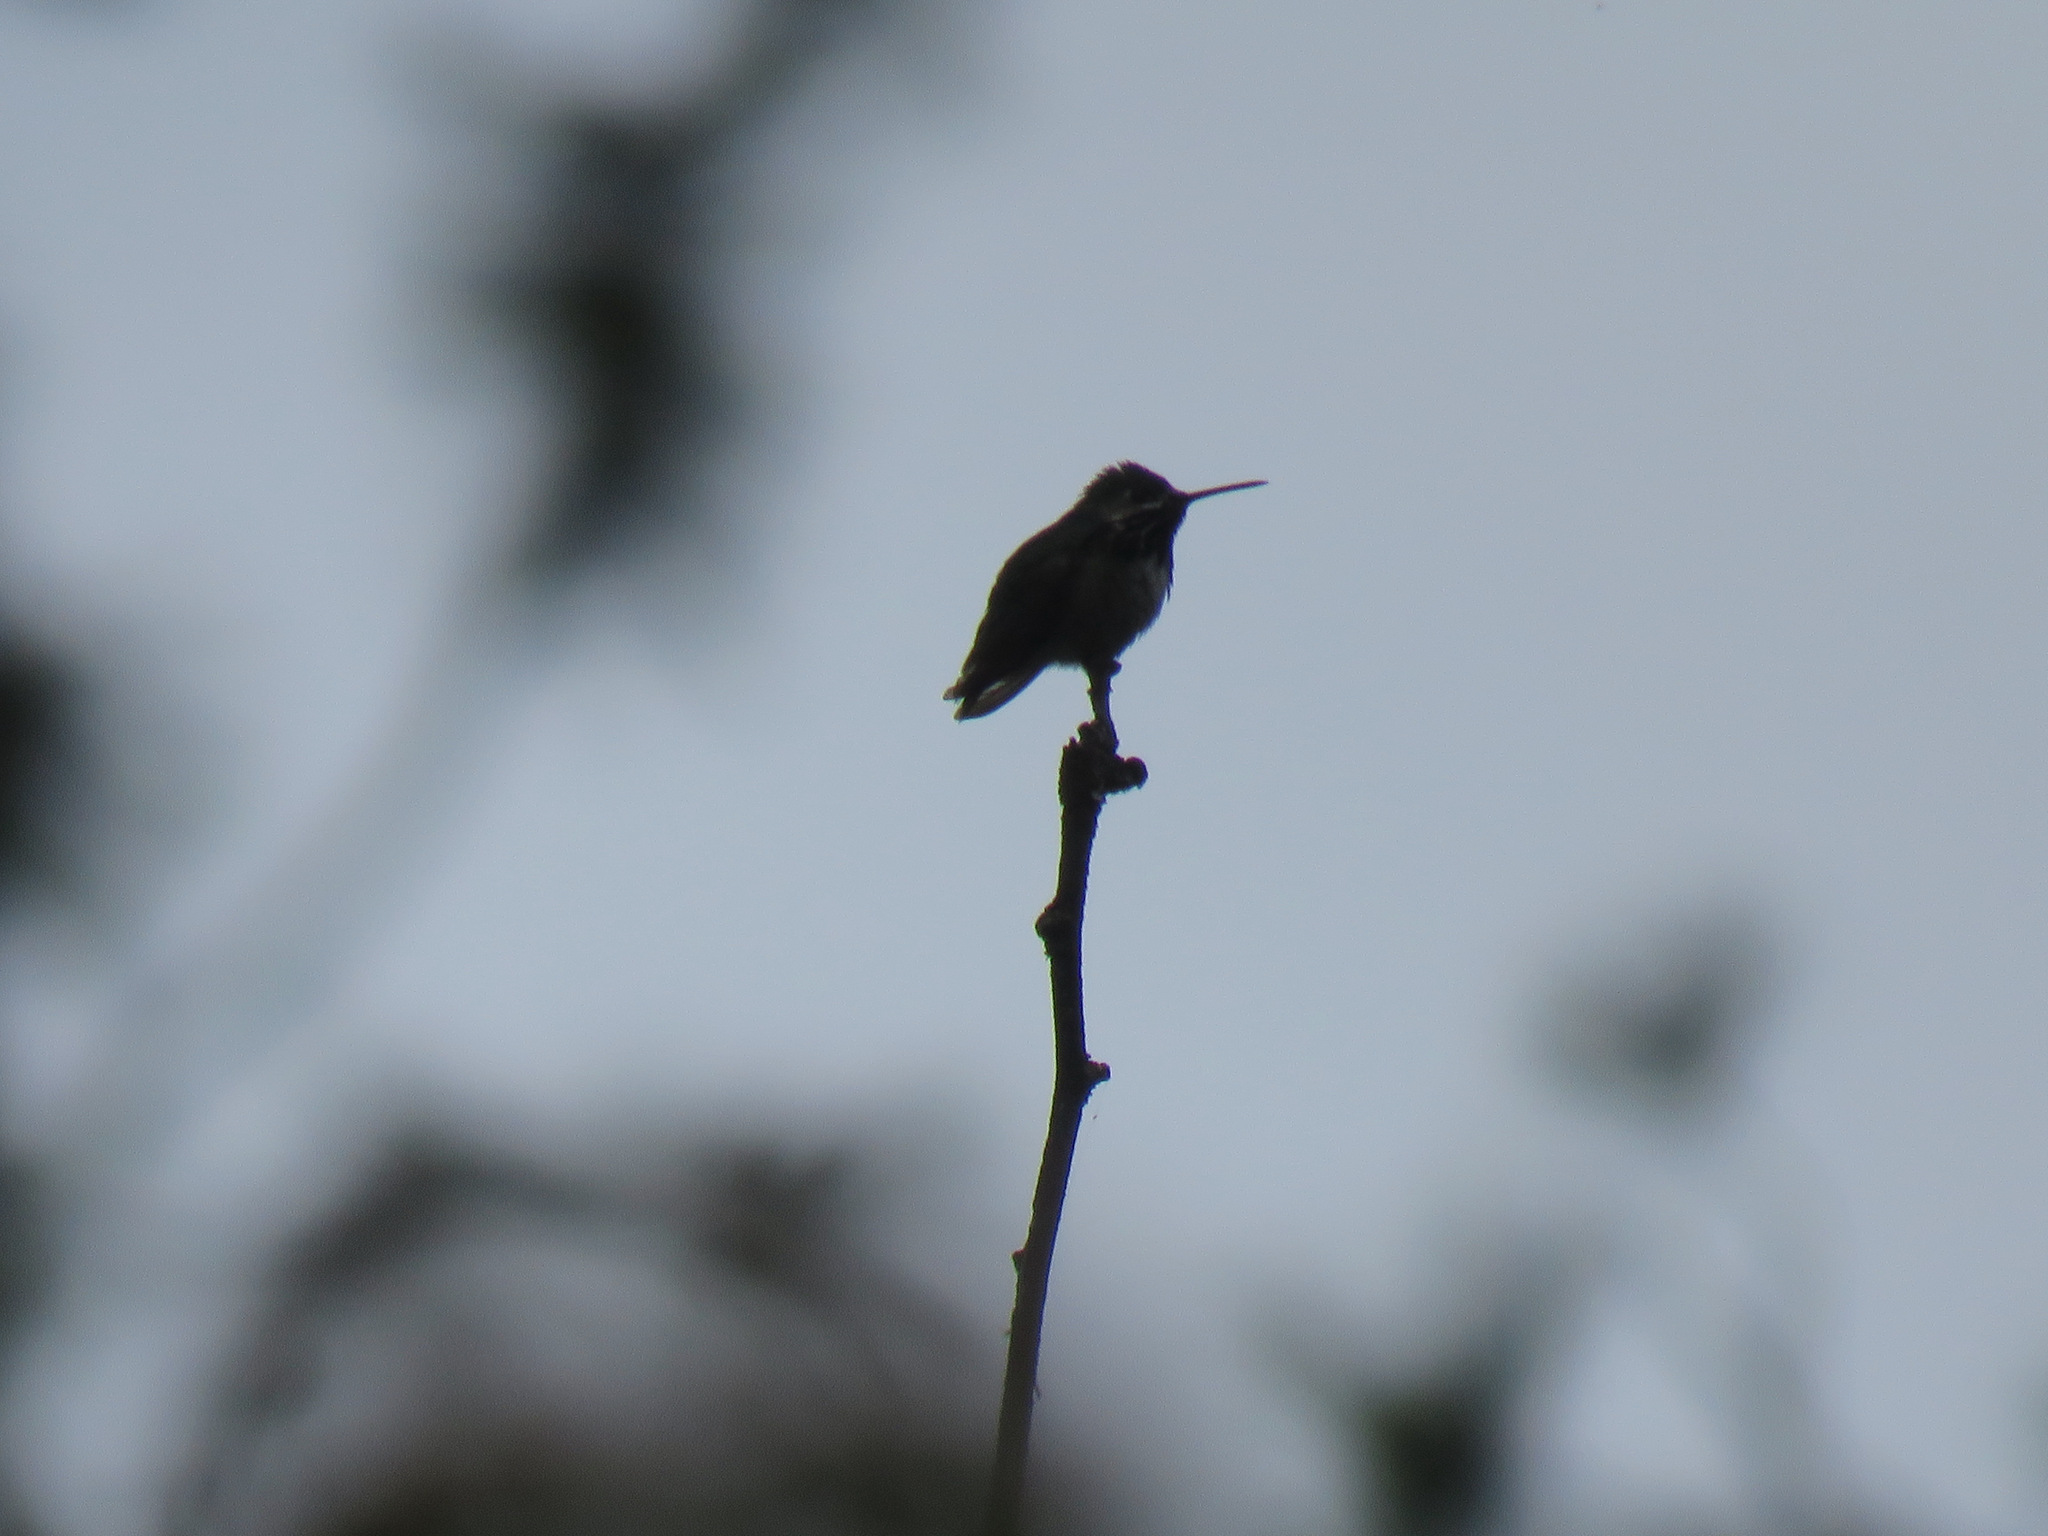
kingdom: Animalia
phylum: Chordata
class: Aves
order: Apodiformes
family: Trochilidae
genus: Selasphorus
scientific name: Selasphorus calliope
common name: Calliope hummingbird
